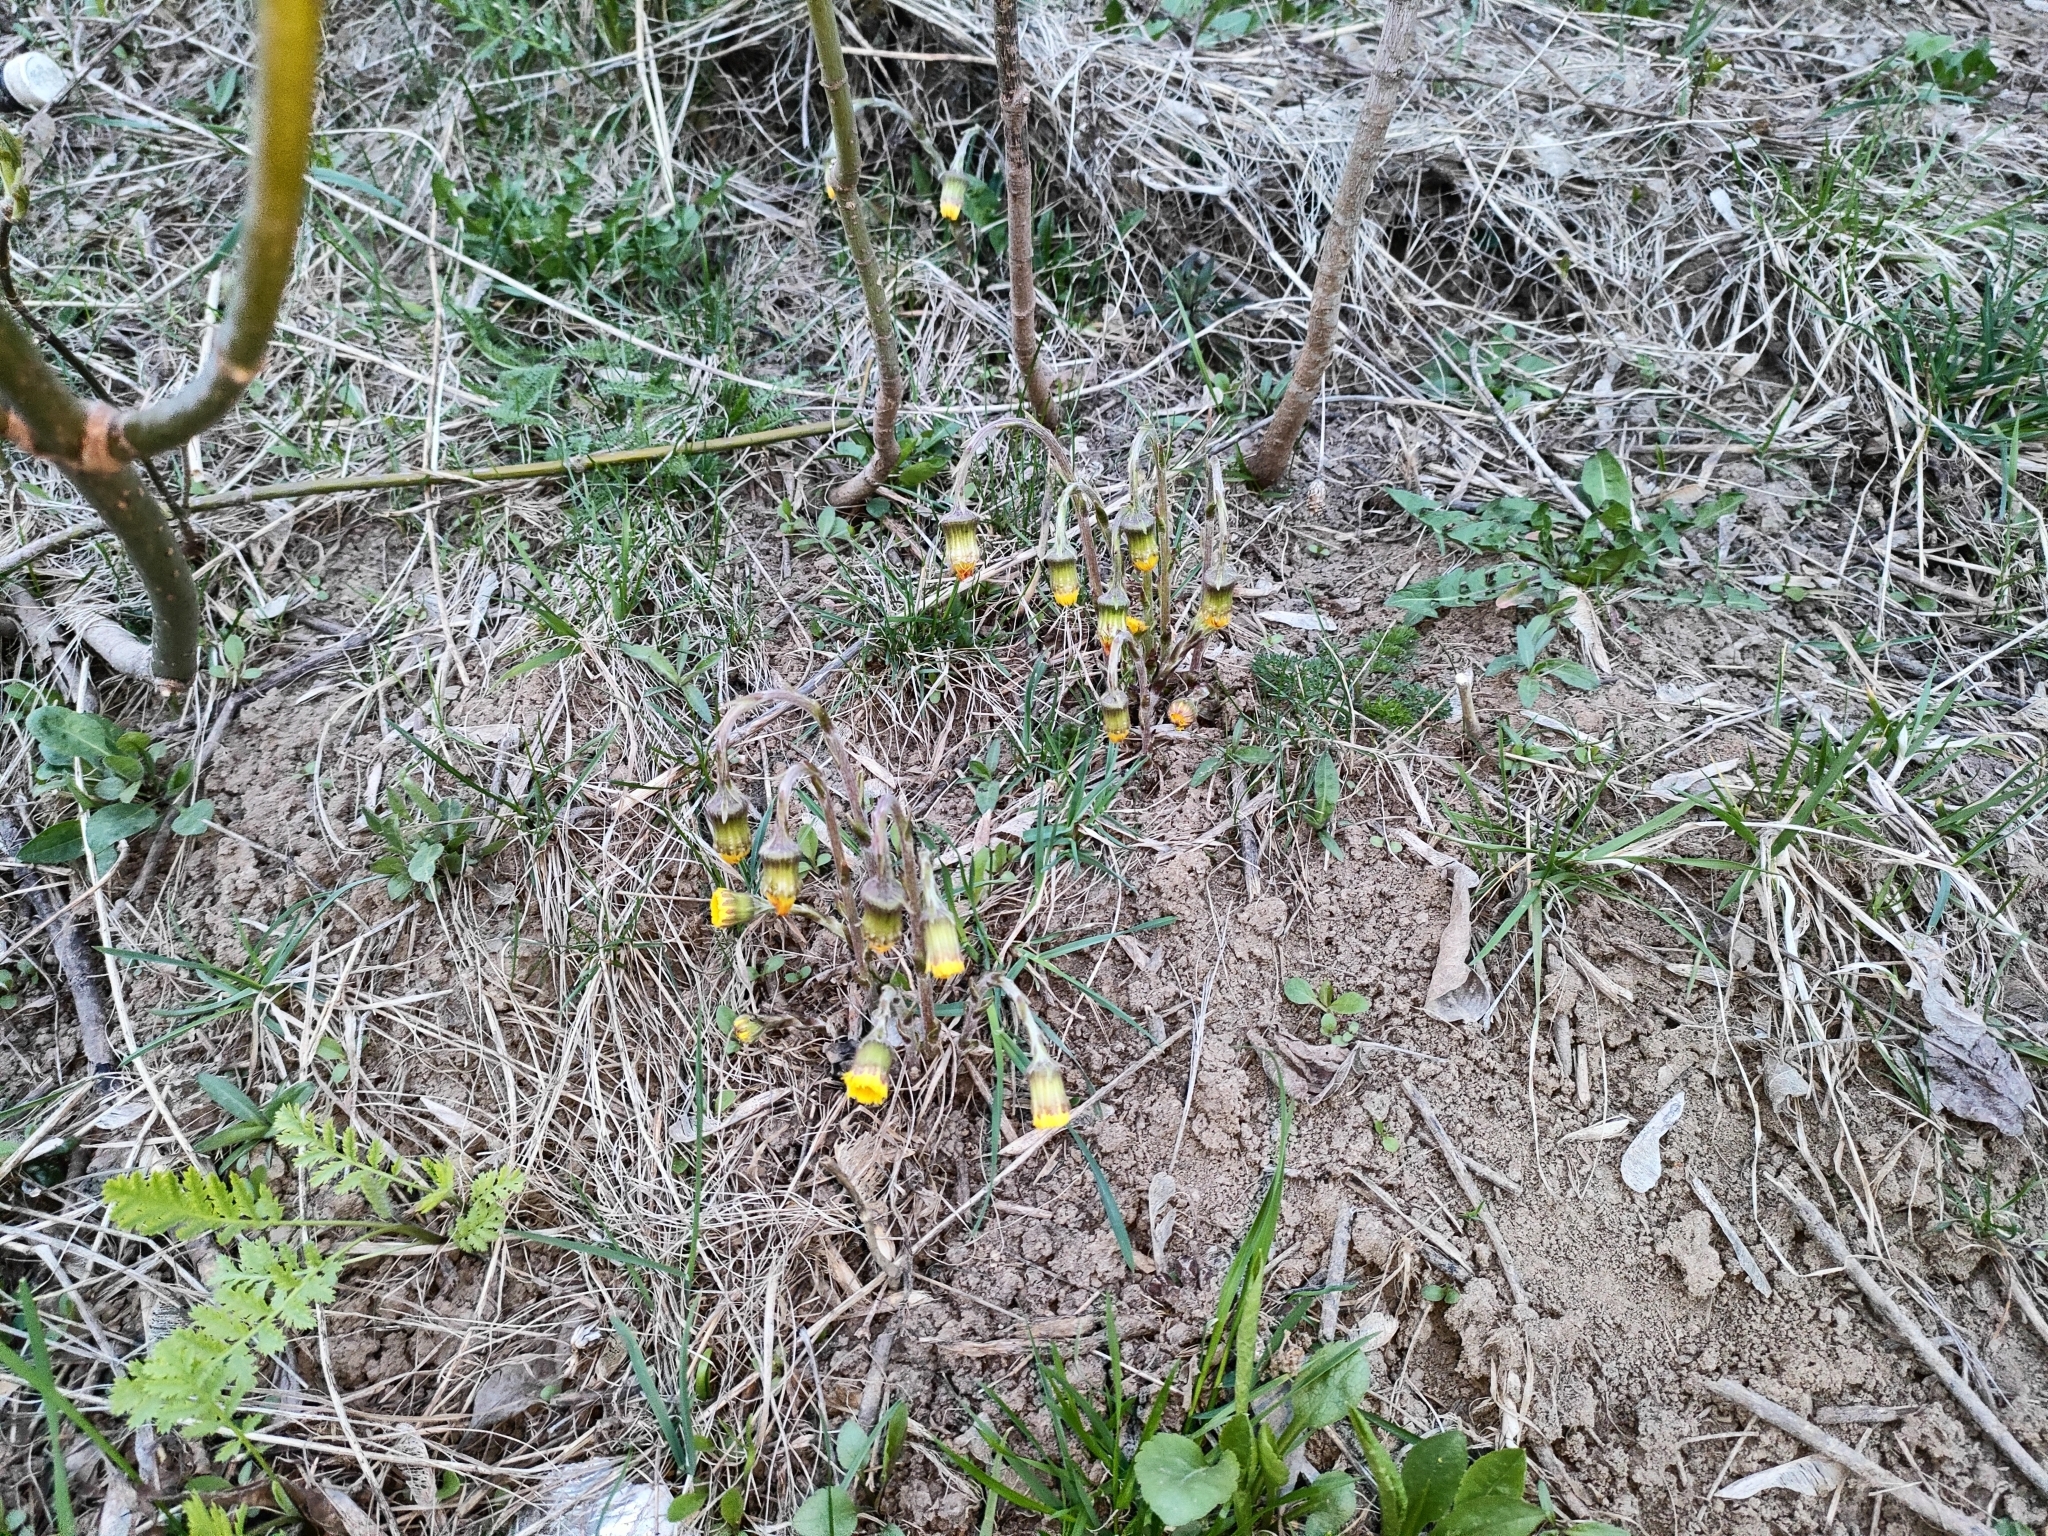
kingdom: Plantae
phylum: Tracheophyta
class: Magnoliopsida
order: Asterales
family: Asteraceae
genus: Tussilago
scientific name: Tussilago farfara
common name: Coltsfoot
